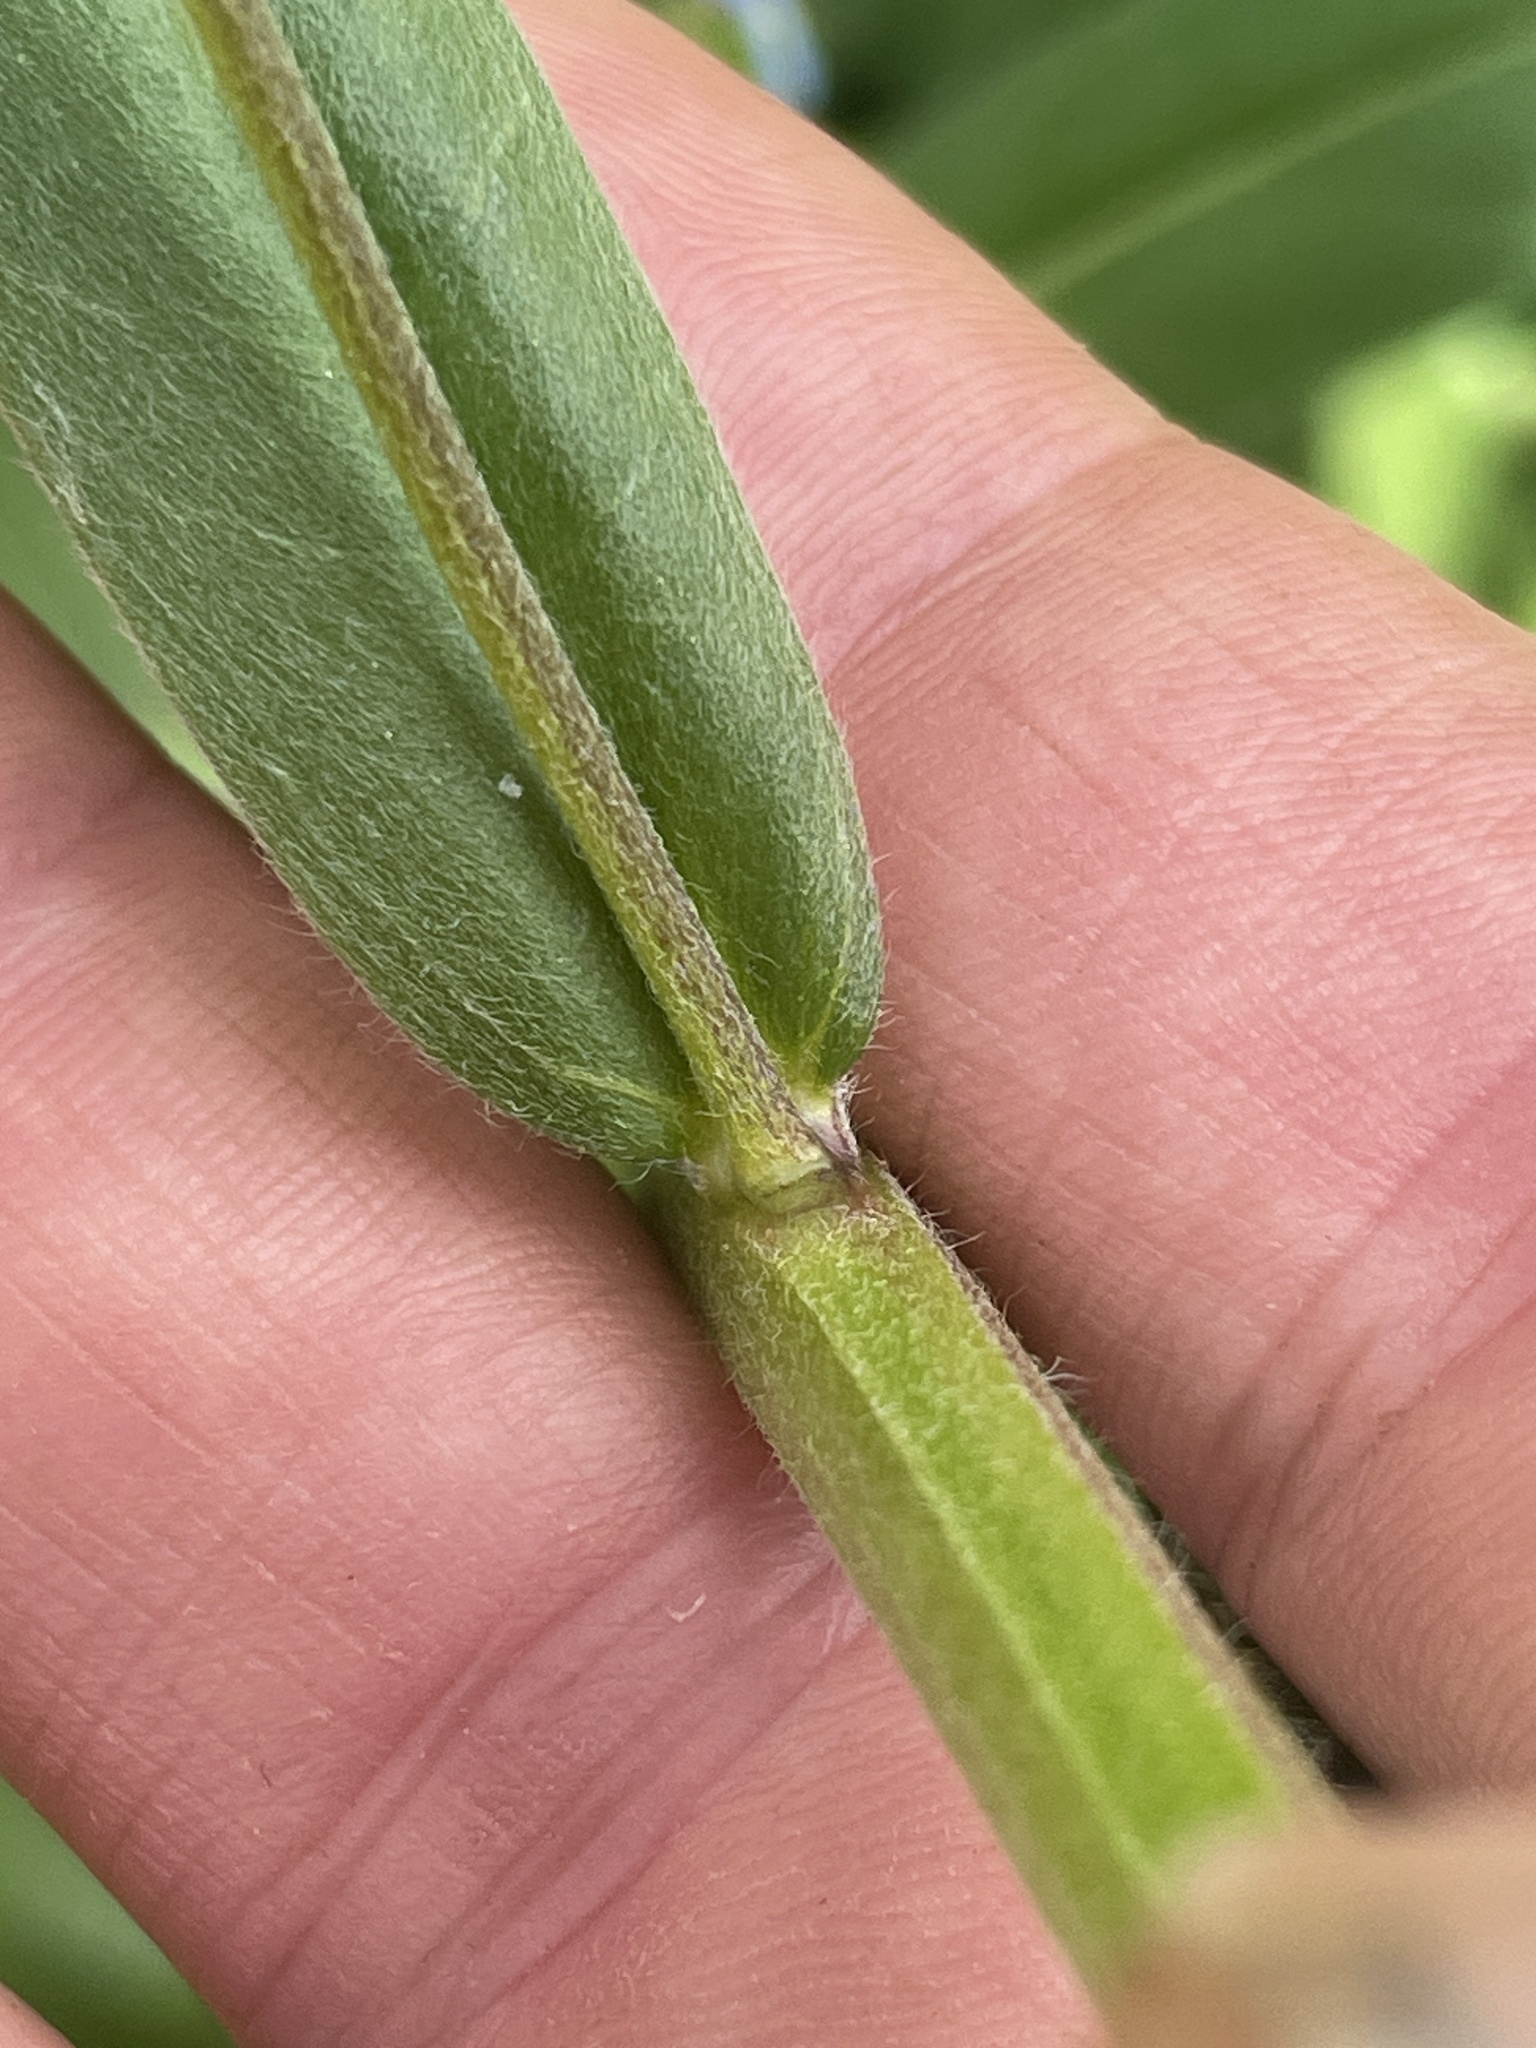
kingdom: Plantae
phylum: Tracheophyta
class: Magnoliopsida
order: Boraginales
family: Boraginaceae
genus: Hackelia
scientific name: Hackelia micrantha
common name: Meadow stickseed
